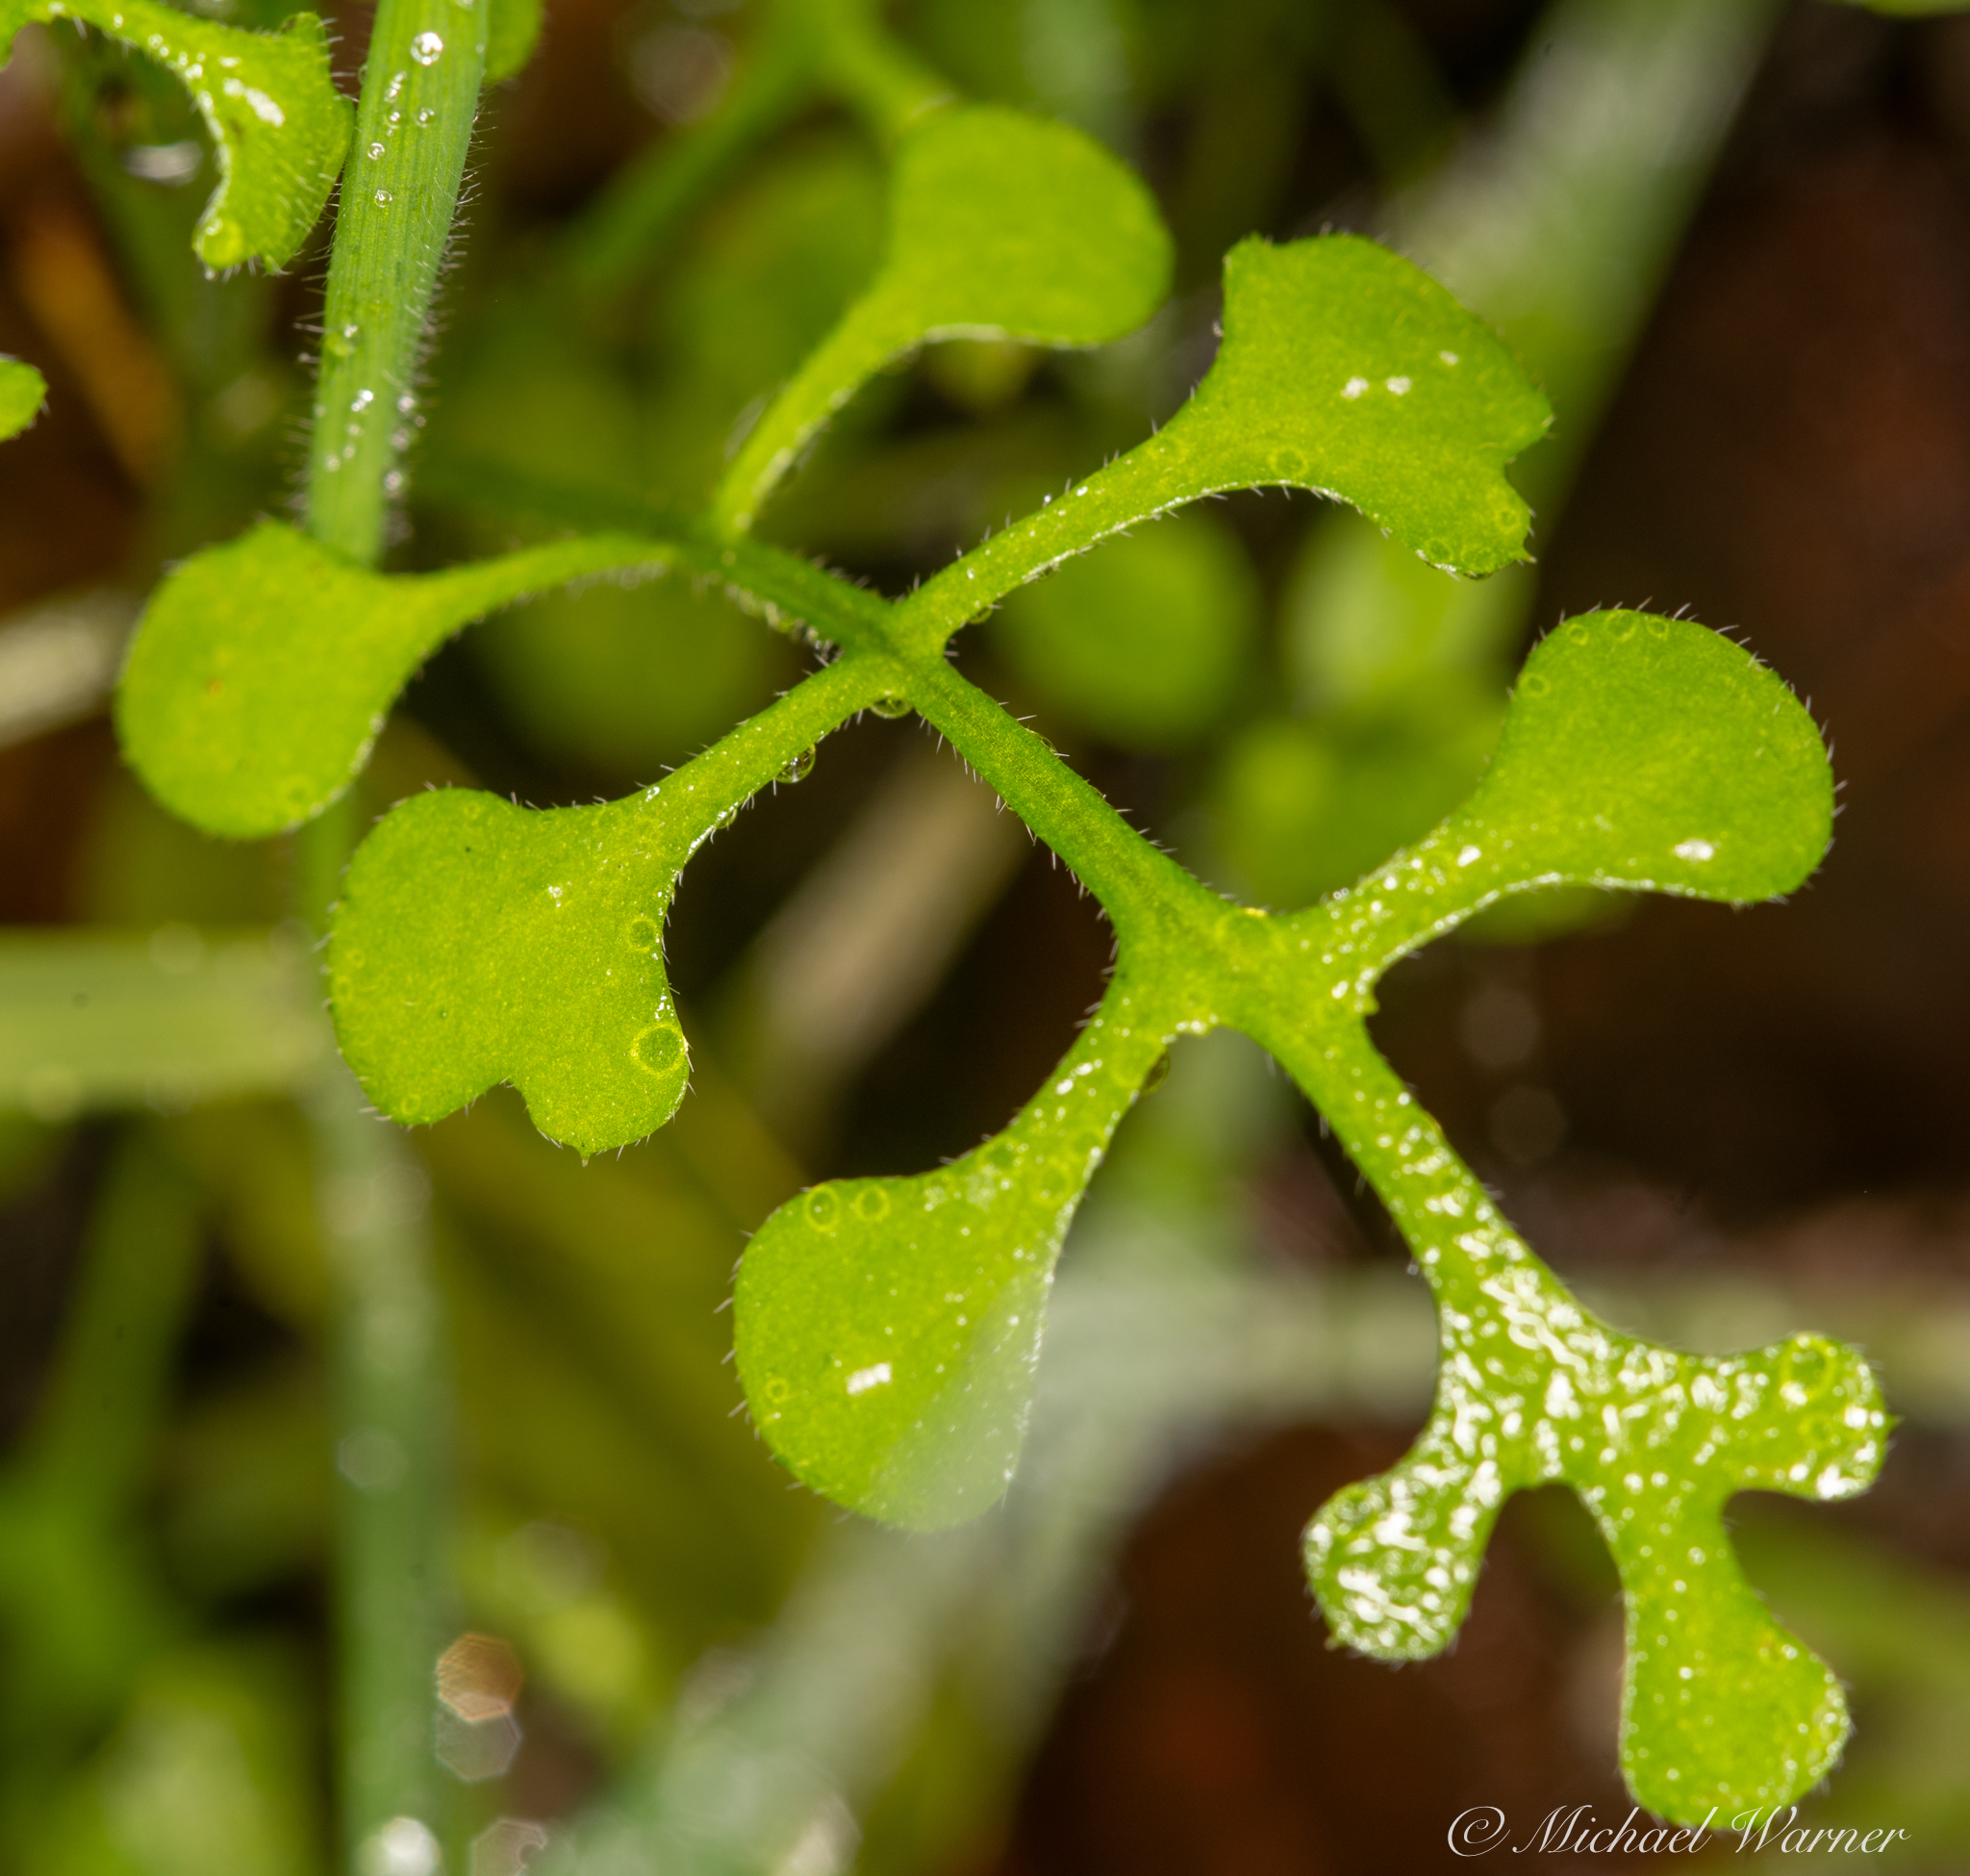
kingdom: Plantae
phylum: Tracheophyta
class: Magnoliopsida
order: Boraginales
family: Hydrophyllaceae
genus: Nemophila
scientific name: Nemophila heterophylla
